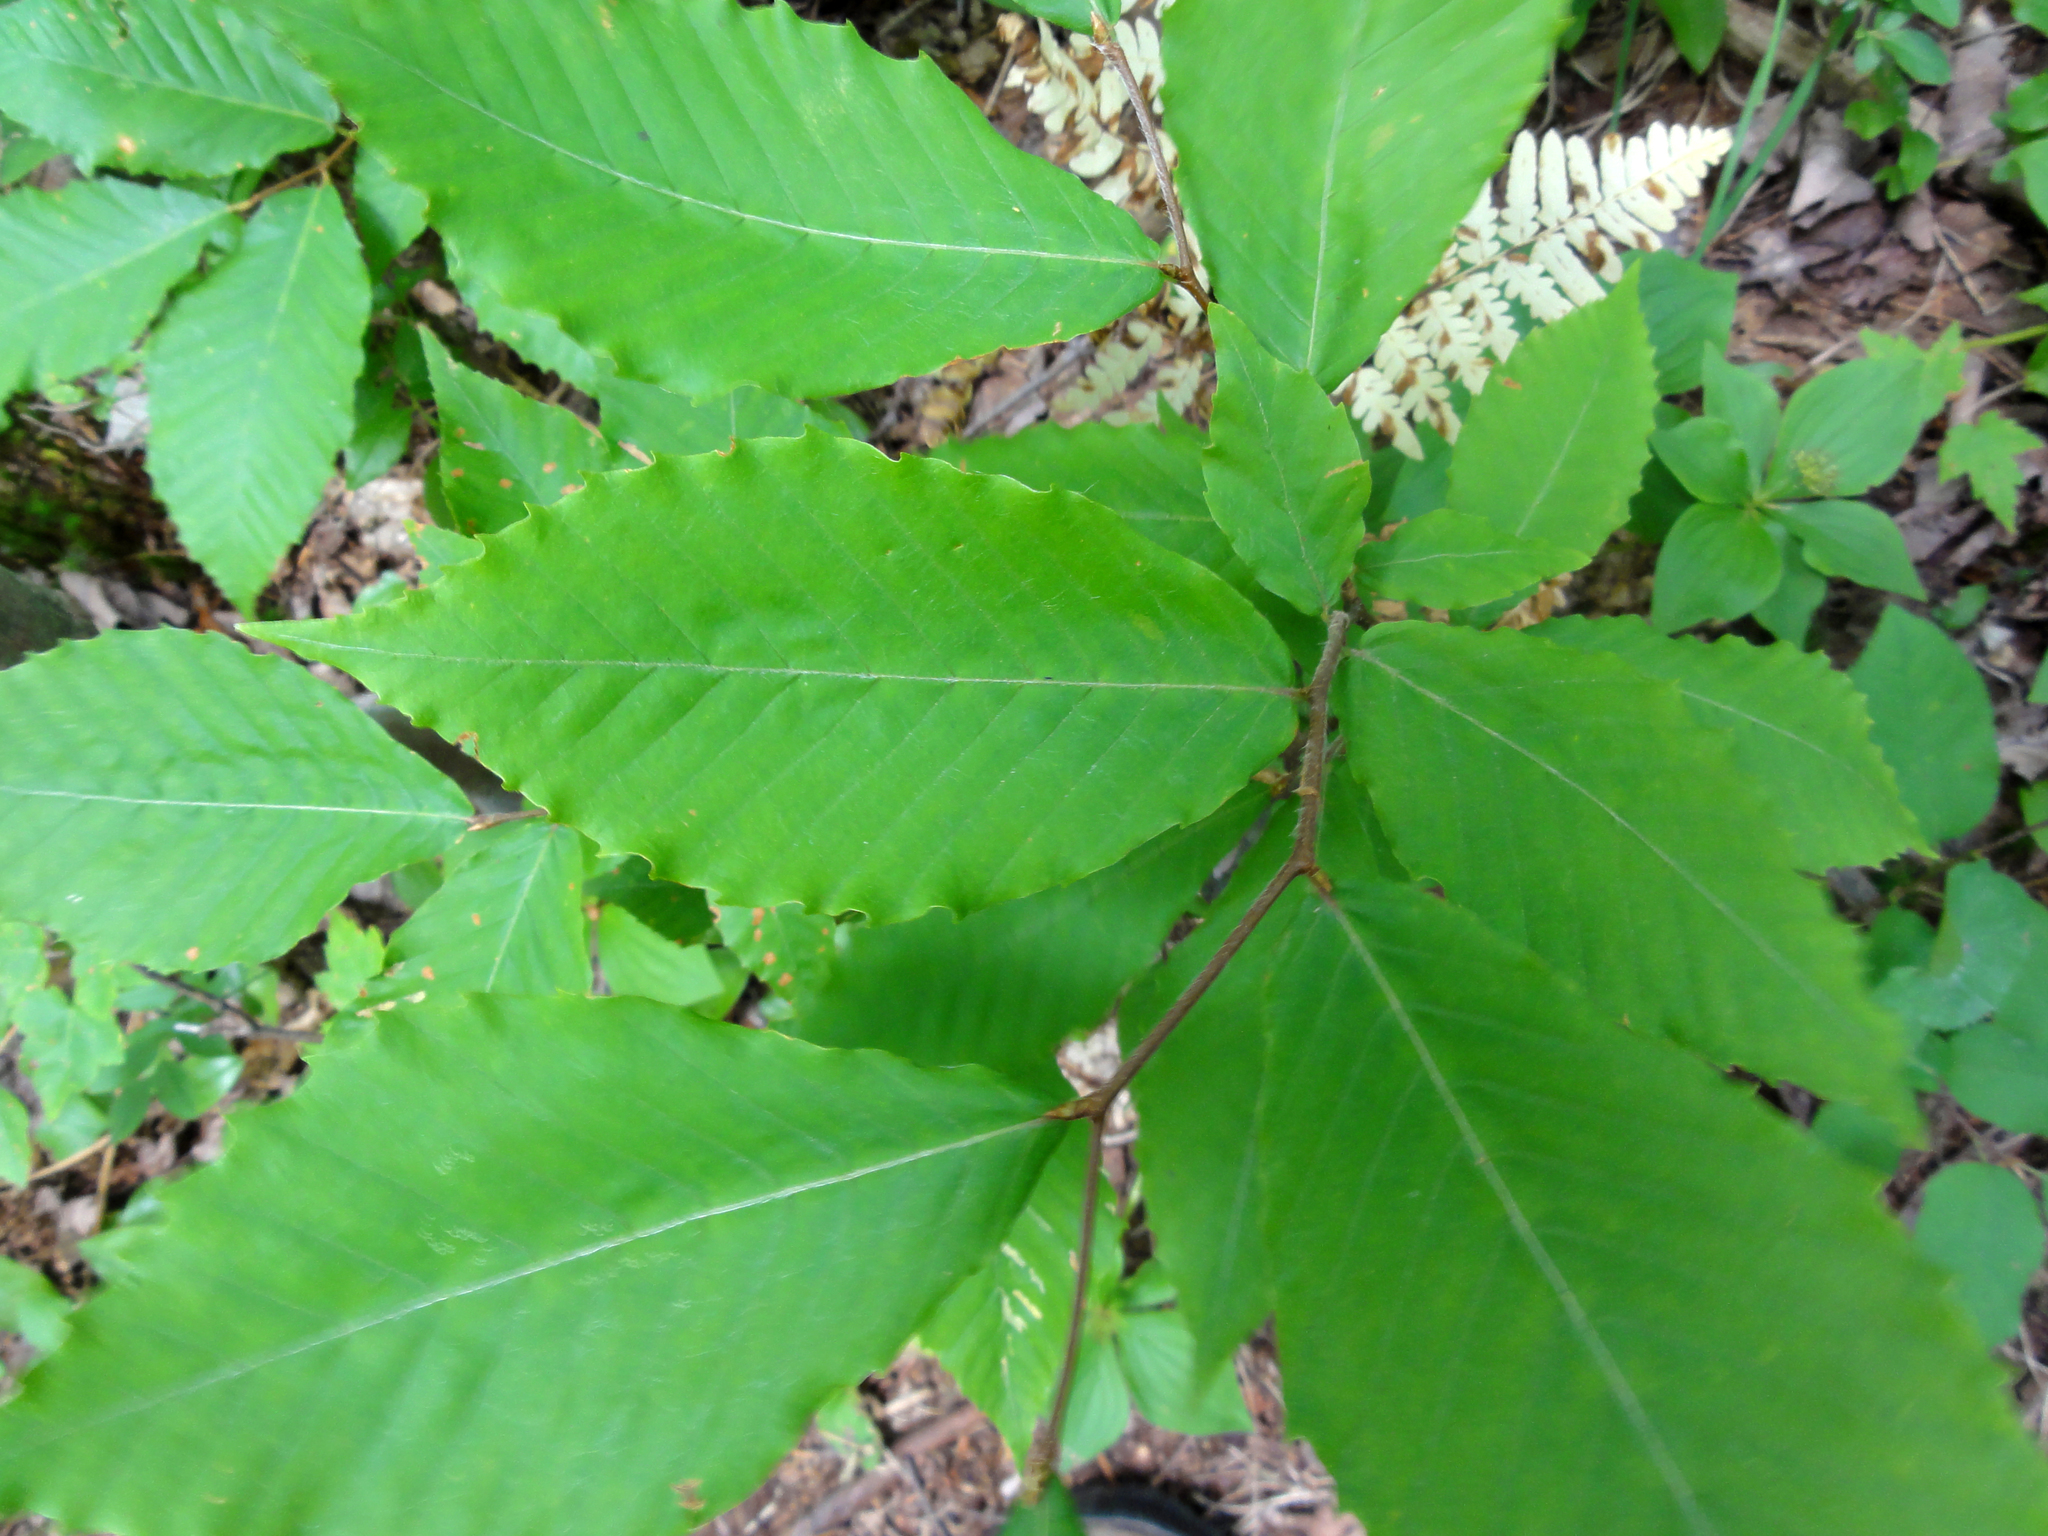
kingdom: Plantae
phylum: Tracheophyta
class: Magnoliopsida
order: Fagales
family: Fagaceae
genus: Fagus
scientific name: Fagus grandifolia
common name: American beech
